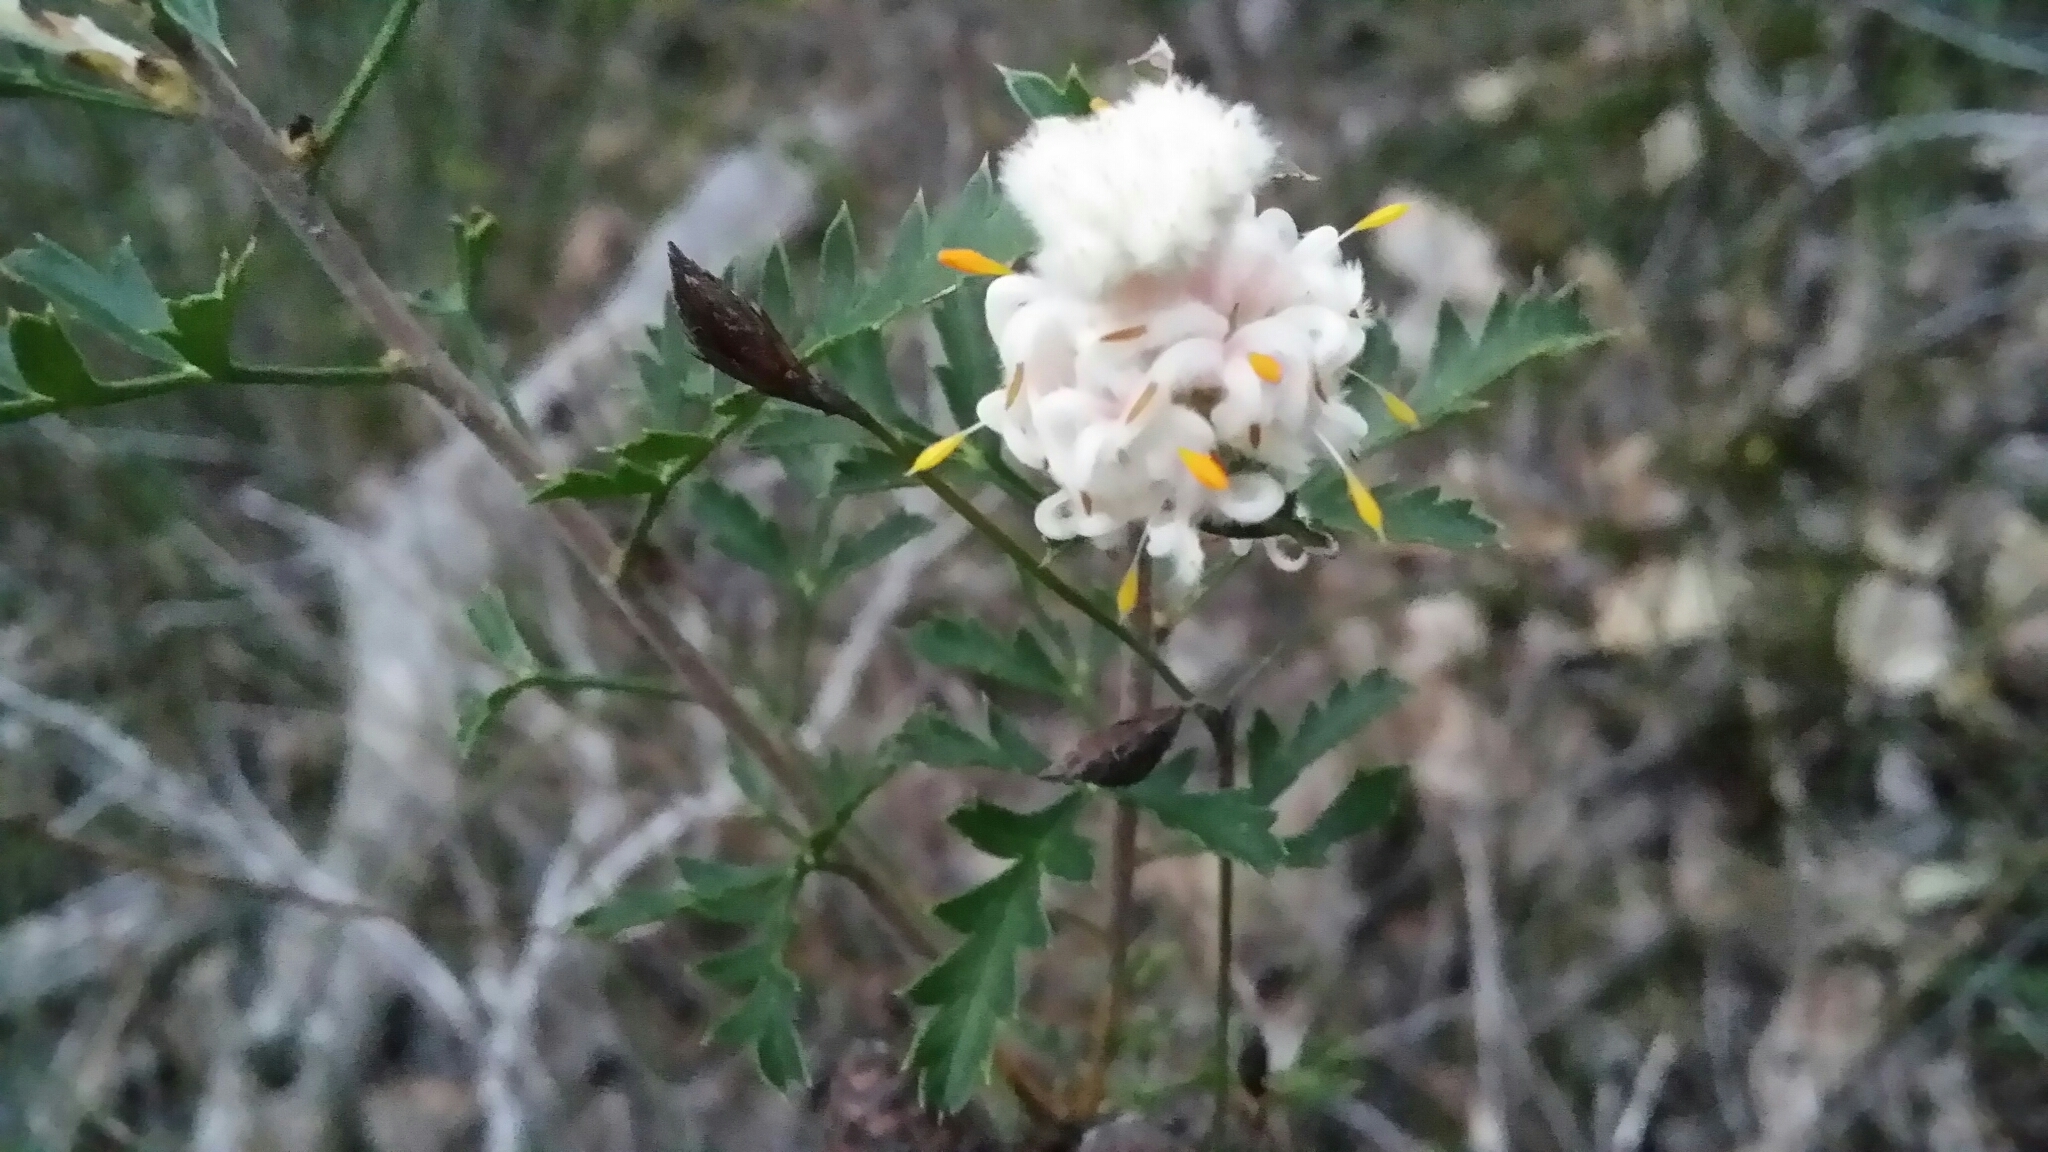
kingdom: Plantae
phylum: Tracheophyta
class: Magnoliopsida
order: Proteales
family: Proteaceae
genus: Petrophile
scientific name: Petrophile diversifolia
